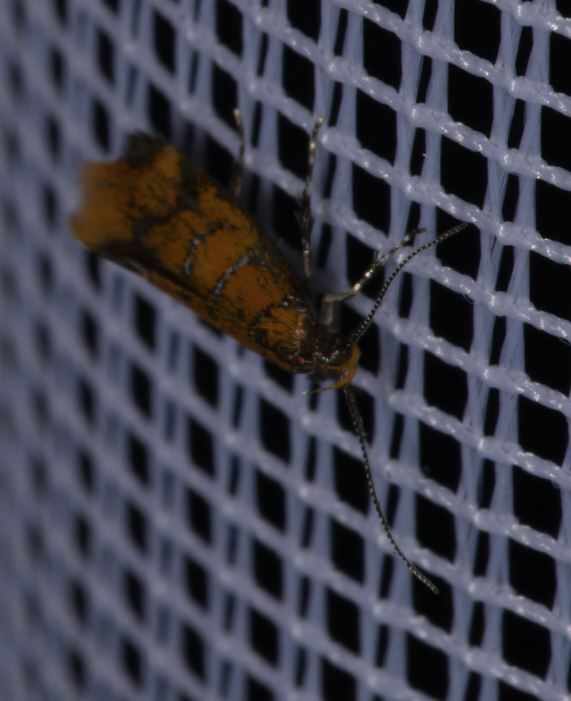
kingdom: Animalia
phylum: Arthropoda
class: Insecta
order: Lepidoptera
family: Oecophoridae
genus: Schiffermuelleria
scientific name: Schiffermuelleria procerella
